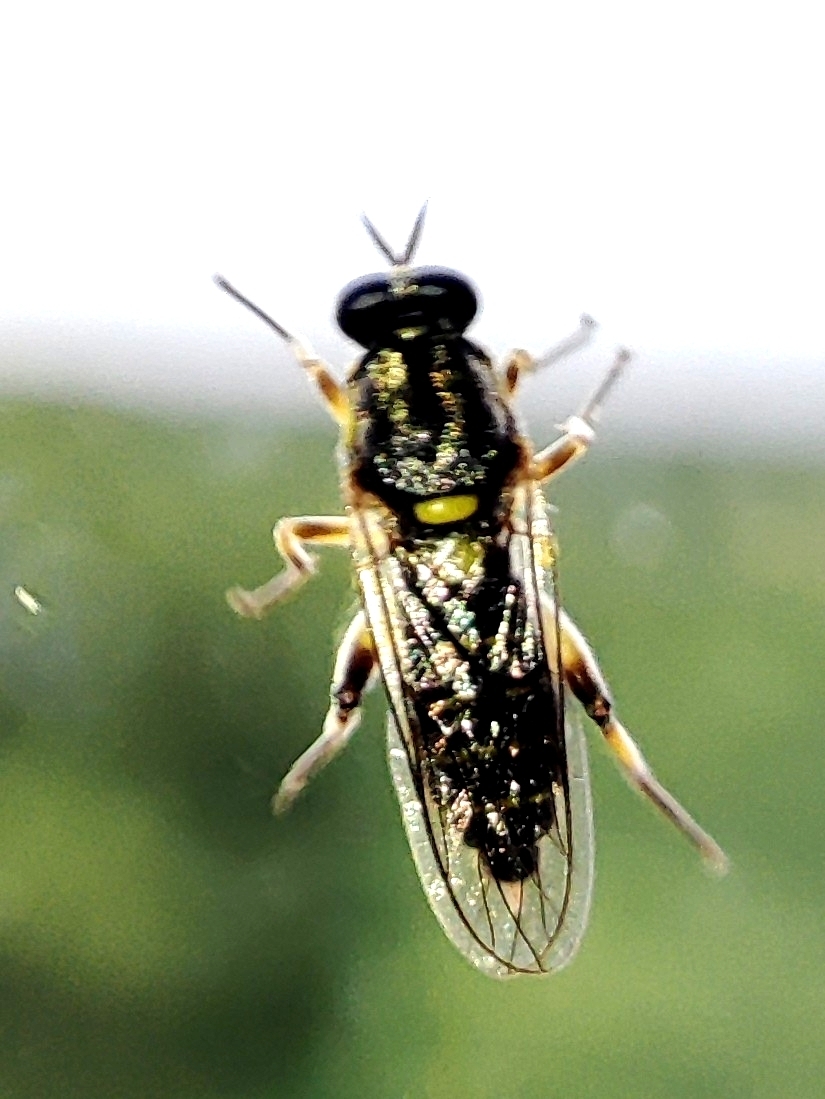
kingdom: Animalia
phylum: Arthropoda
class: Insecta
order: Diptera
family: Xylomyidae
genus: Solva
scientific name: Solva marginata
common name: Drab wood-soldierfly
